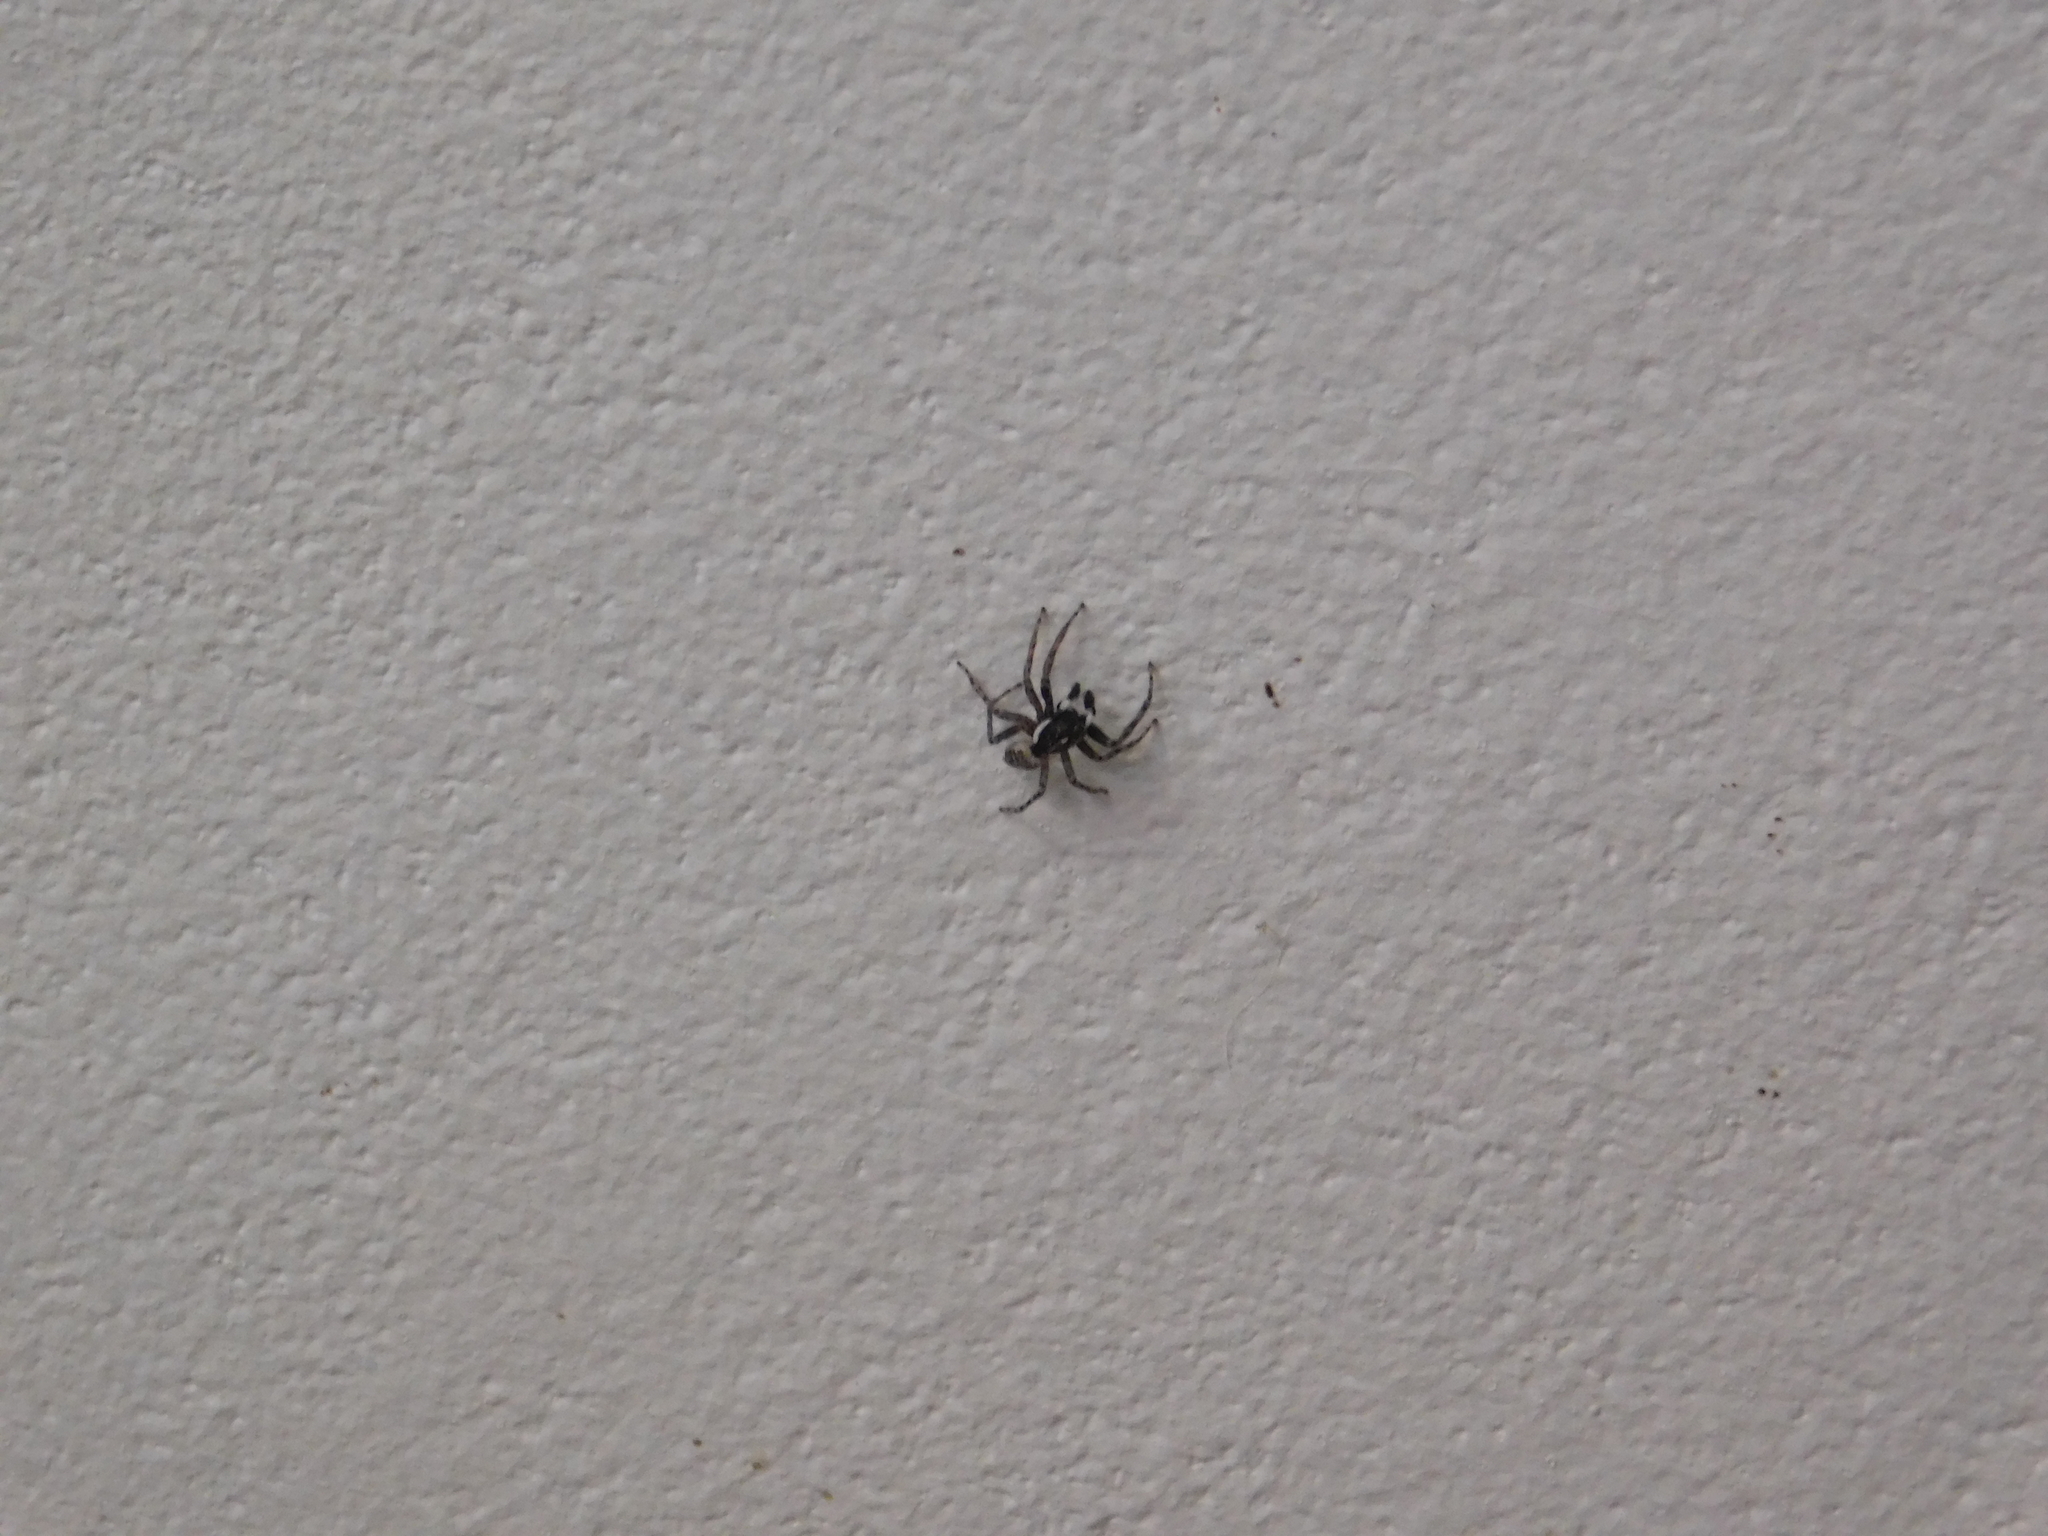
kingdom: Animalia
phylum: Arthropoda
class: Arachnida
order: Araneae
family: Salticidae
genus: Menemerus
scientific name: Menemerus semilimbatus
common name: Jumping spider
